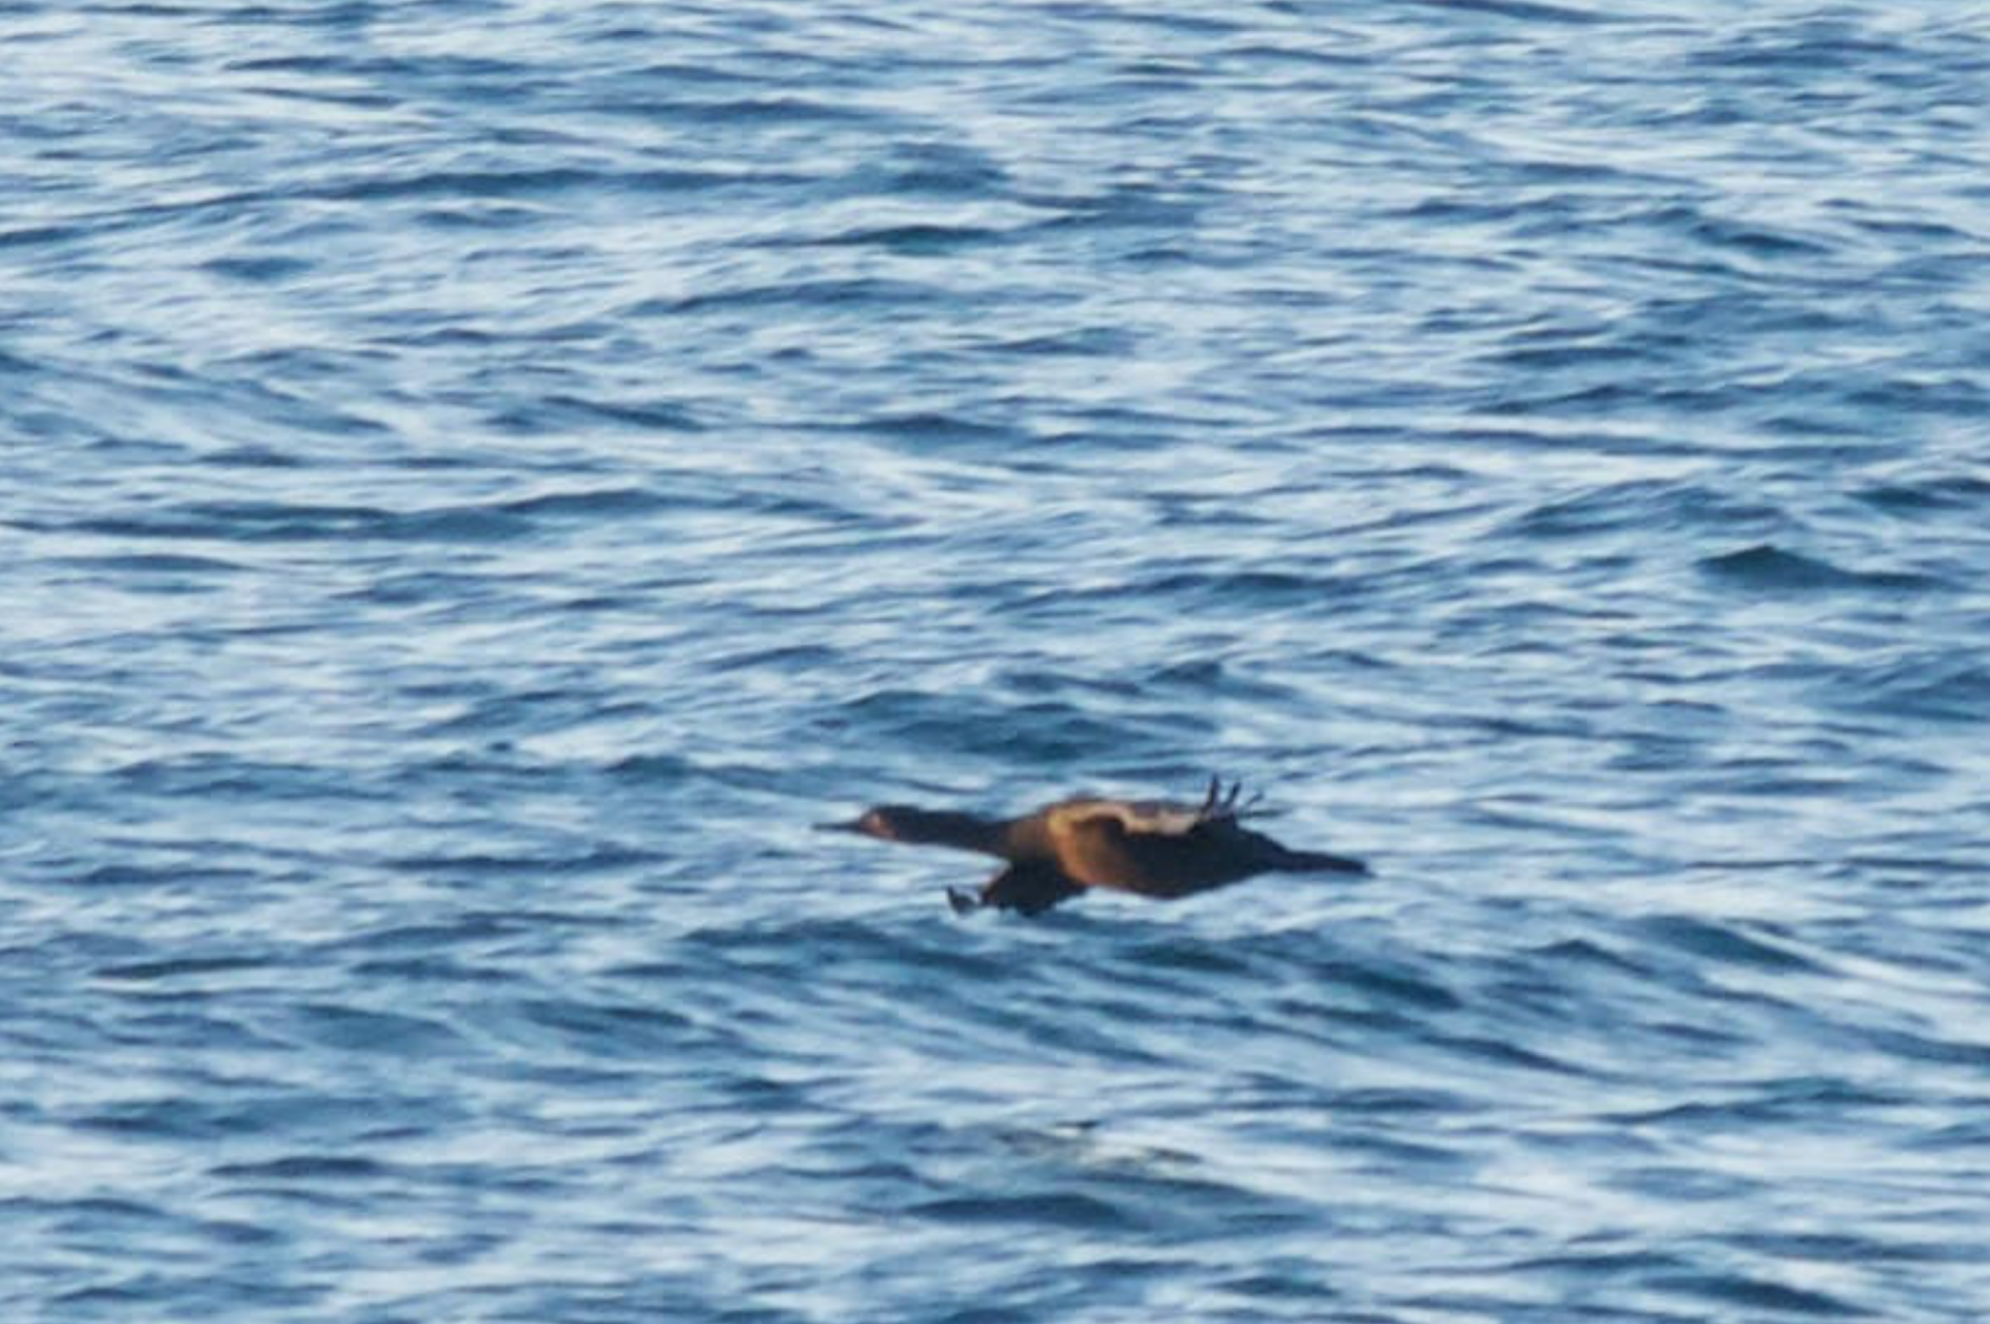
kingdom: Animalia
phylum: Chordata
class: Aves
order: Suliformes
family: Phalacrocoracidae
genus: Urile
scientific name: Urile penicillatus
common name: Brandt's cormorant
